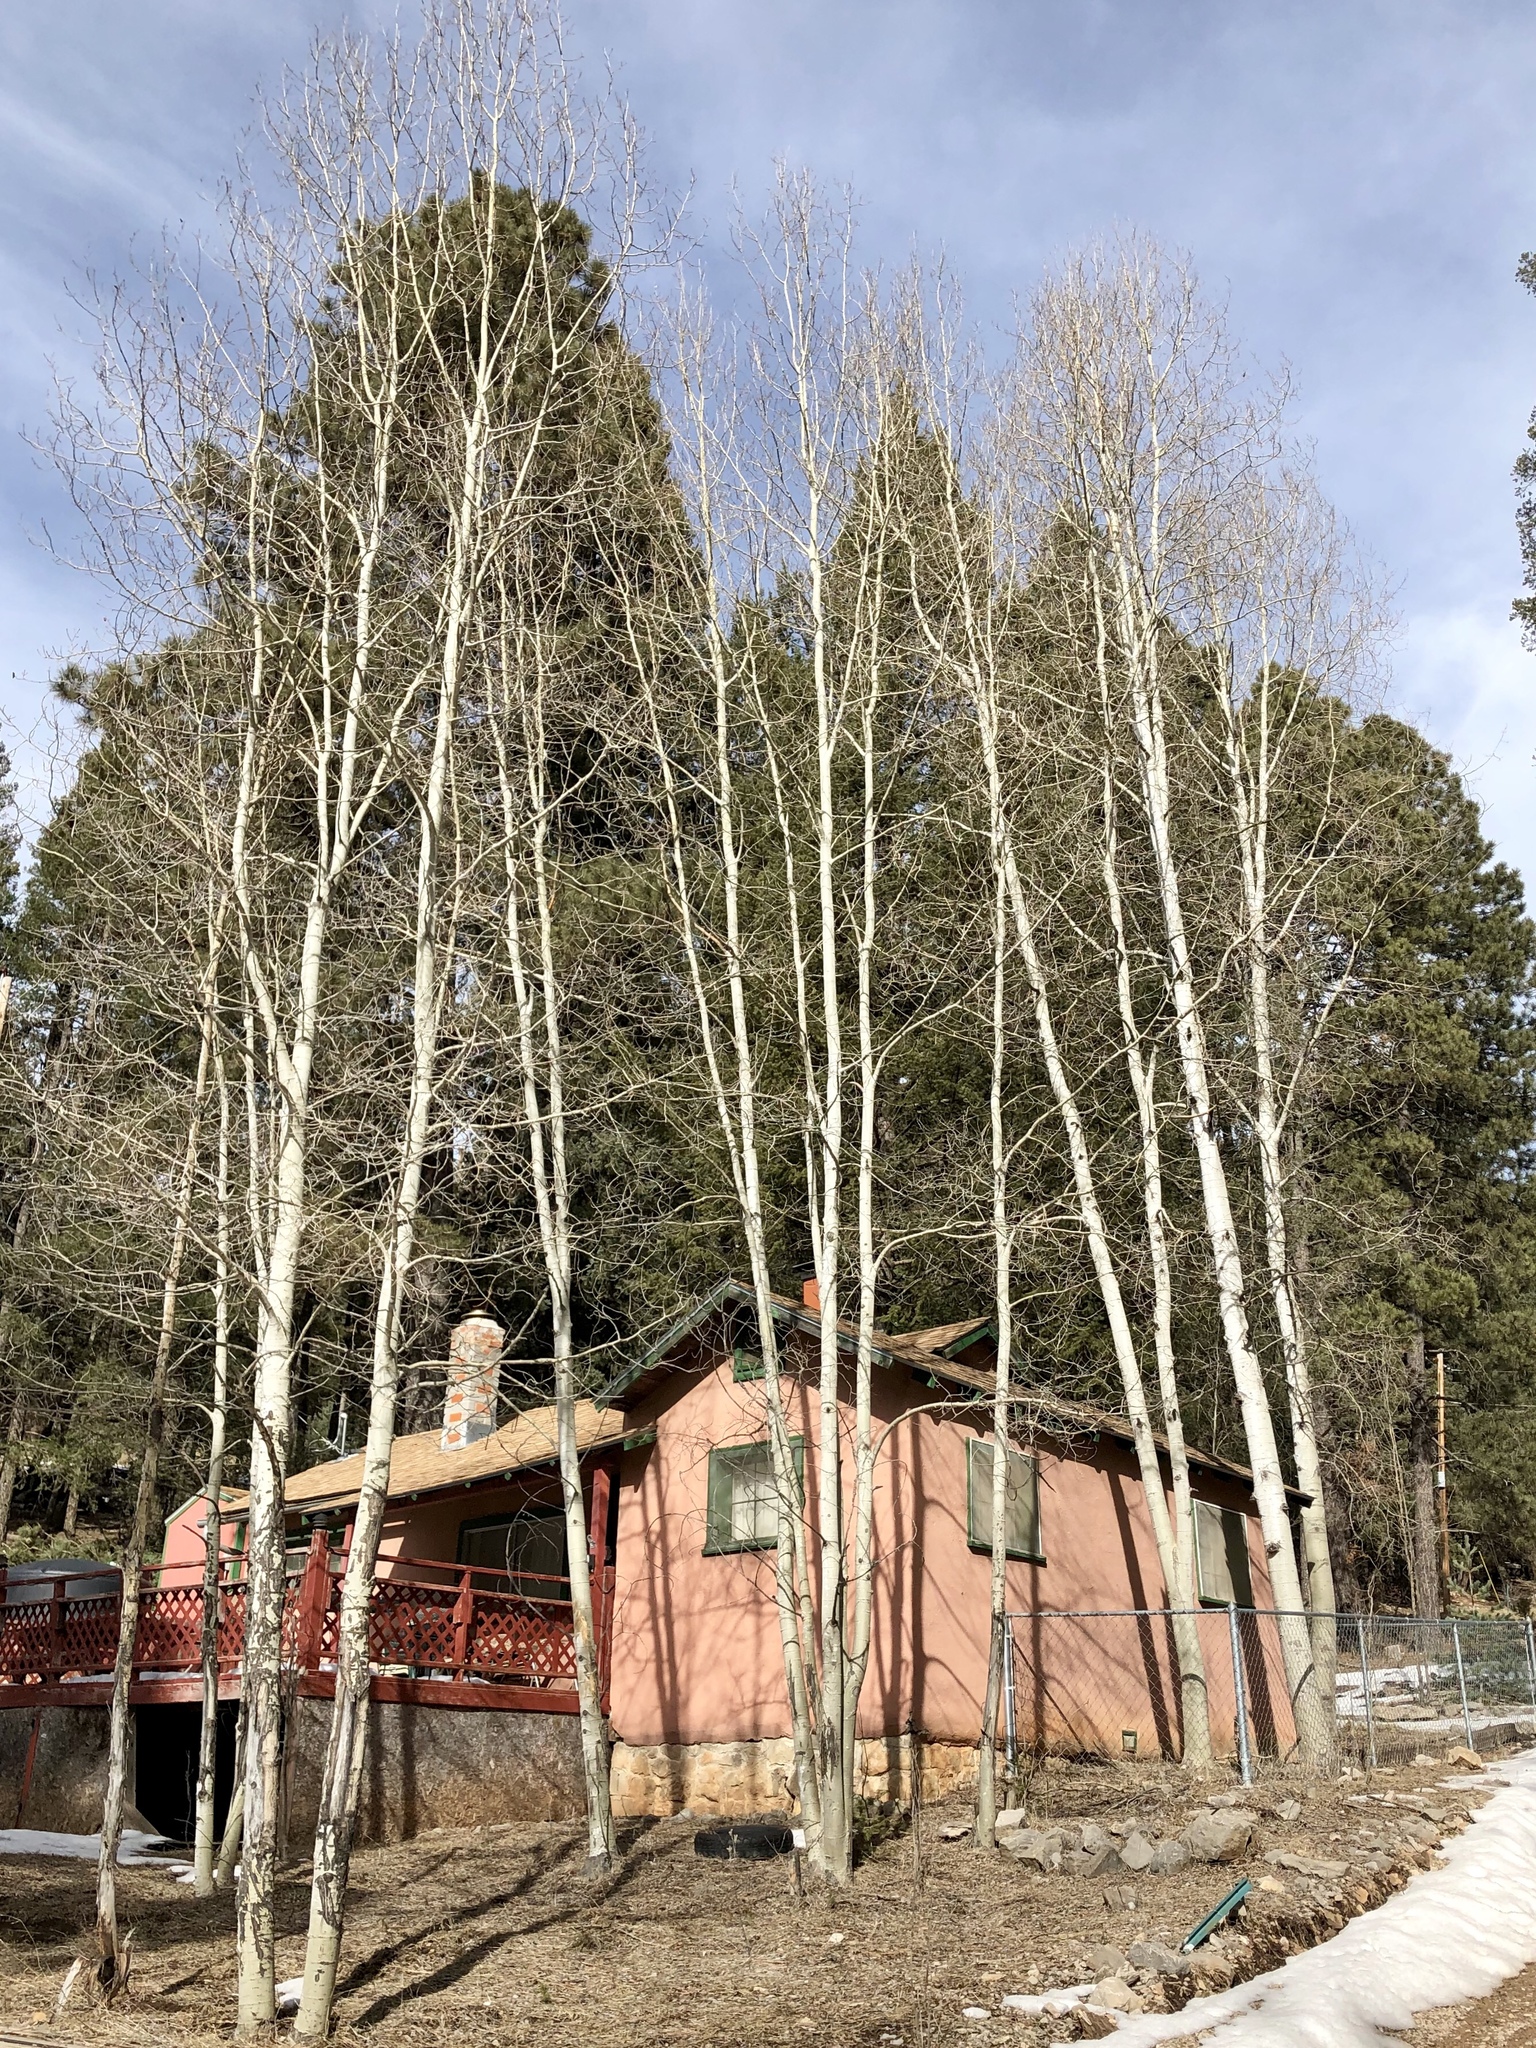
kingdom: Plantae
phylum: Tracheophyta
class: Magnoliopsida
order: Malpighiales
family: Salicaceae
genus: Populus
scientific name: Populus tremuloides
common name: Quaking aspen
